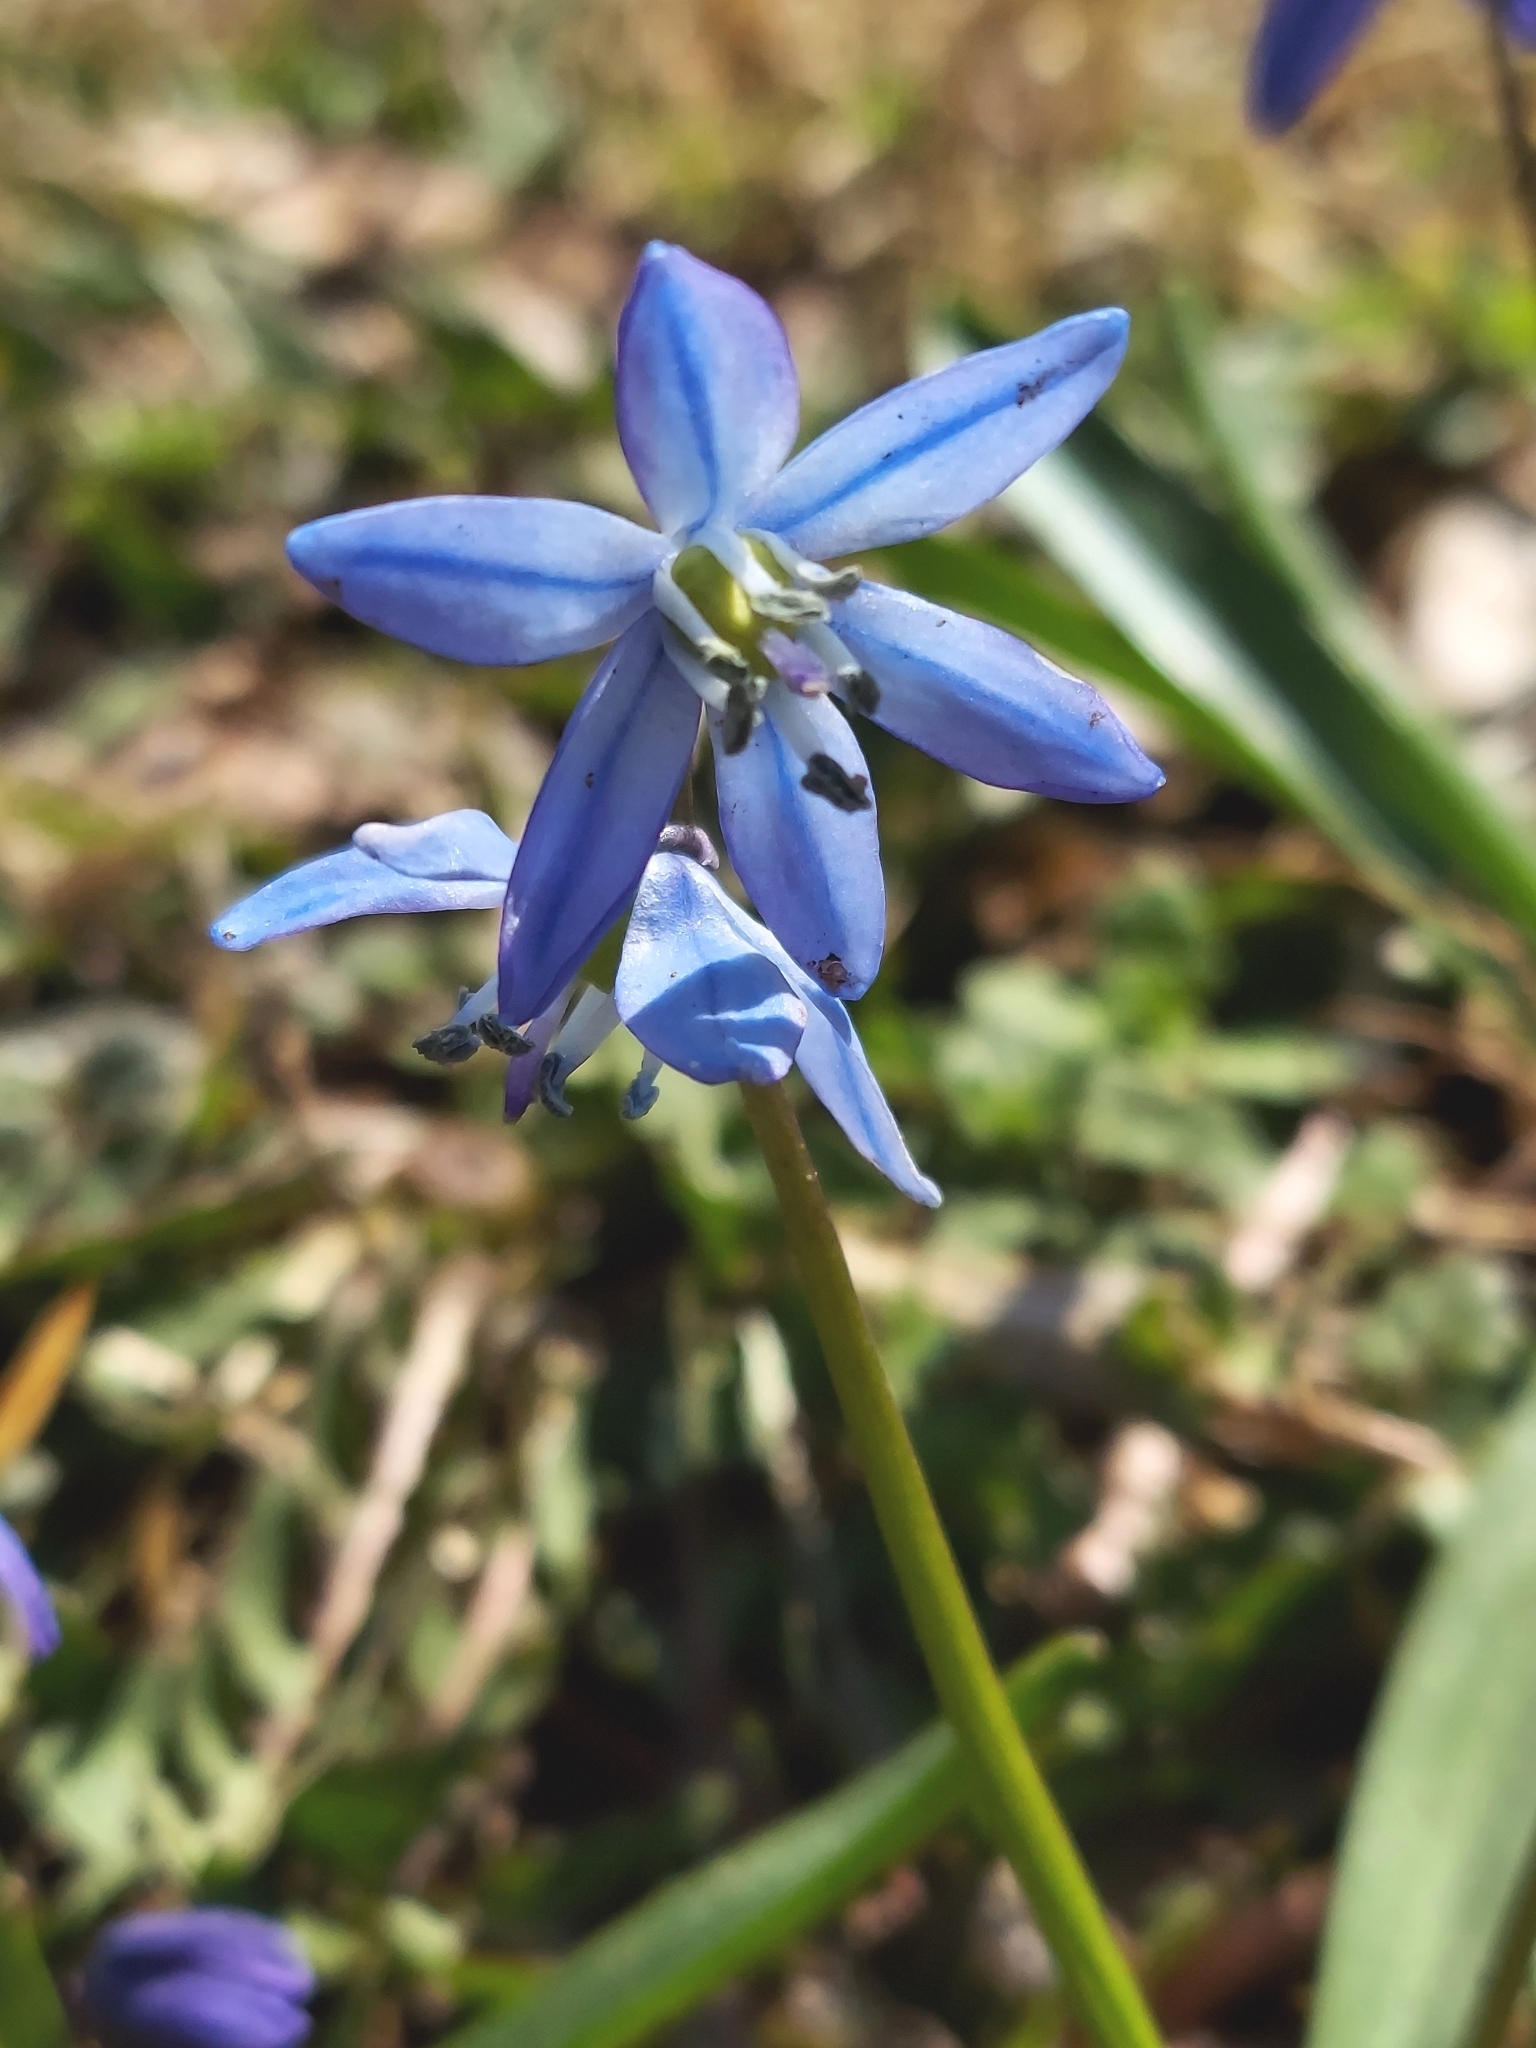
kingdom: Plantae
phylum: Tracheophyta
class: Liliopsida
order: Asparagales
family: Asparagaceae
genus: Scilla
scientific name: Scilla siberica
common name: Siberian squill
